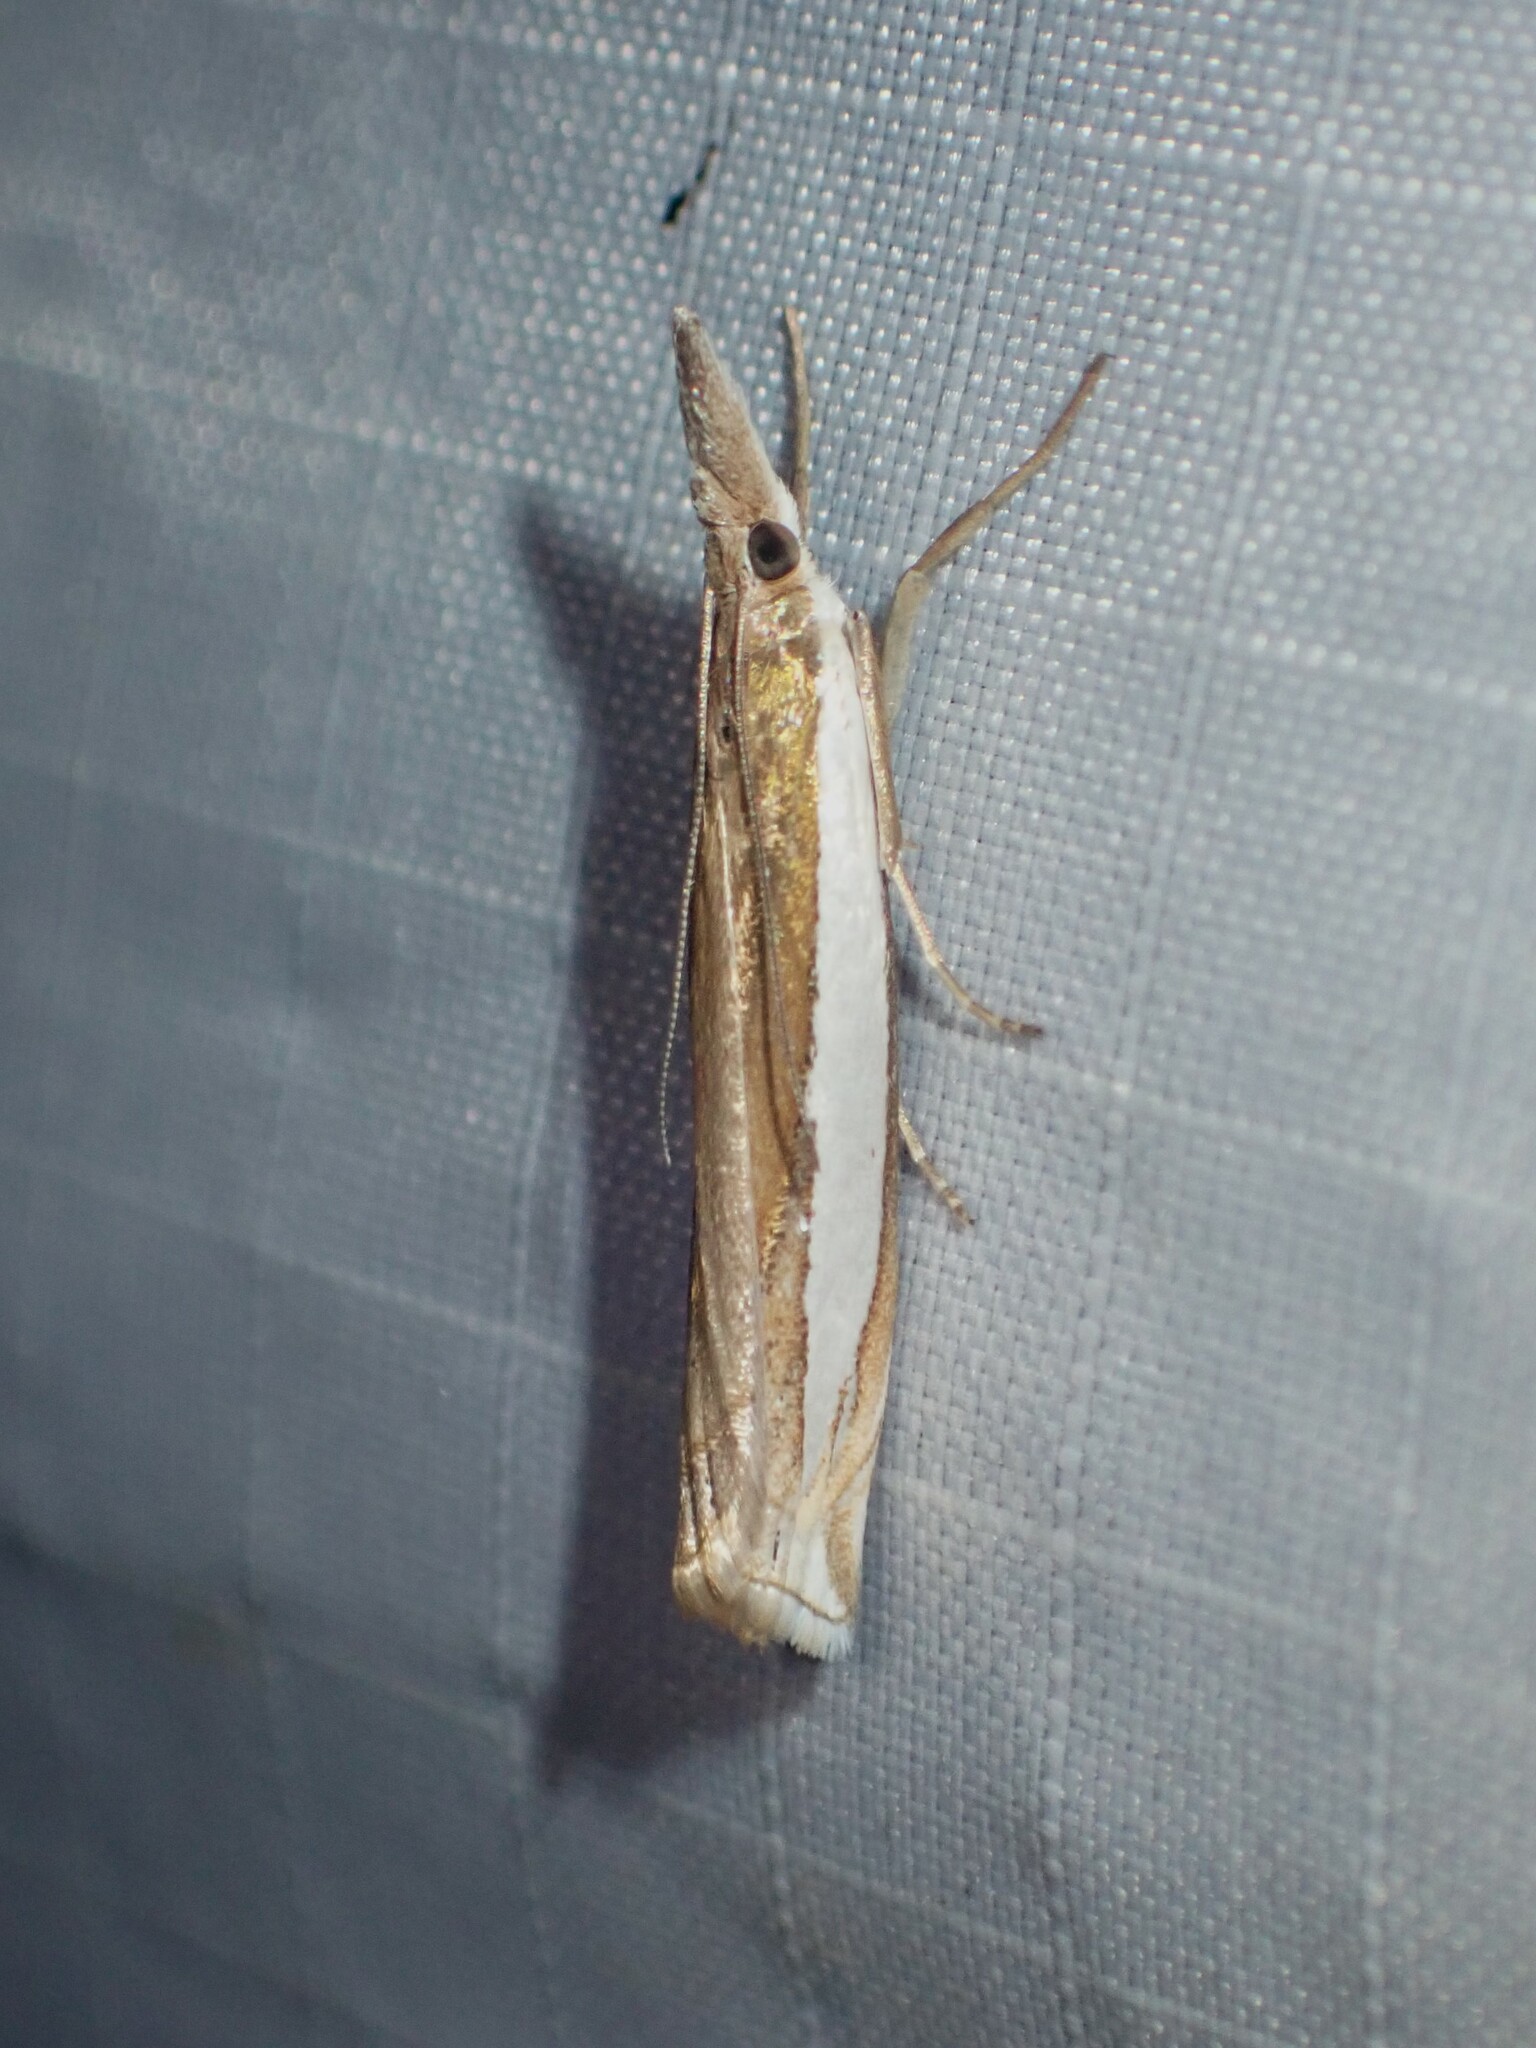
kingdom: Animalia
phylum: Arthropoda
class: Insecta
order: Lepidoptera
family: Crambidae
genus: Crambus
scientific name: Crambus leachellus
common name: Leach's grass-veneer
